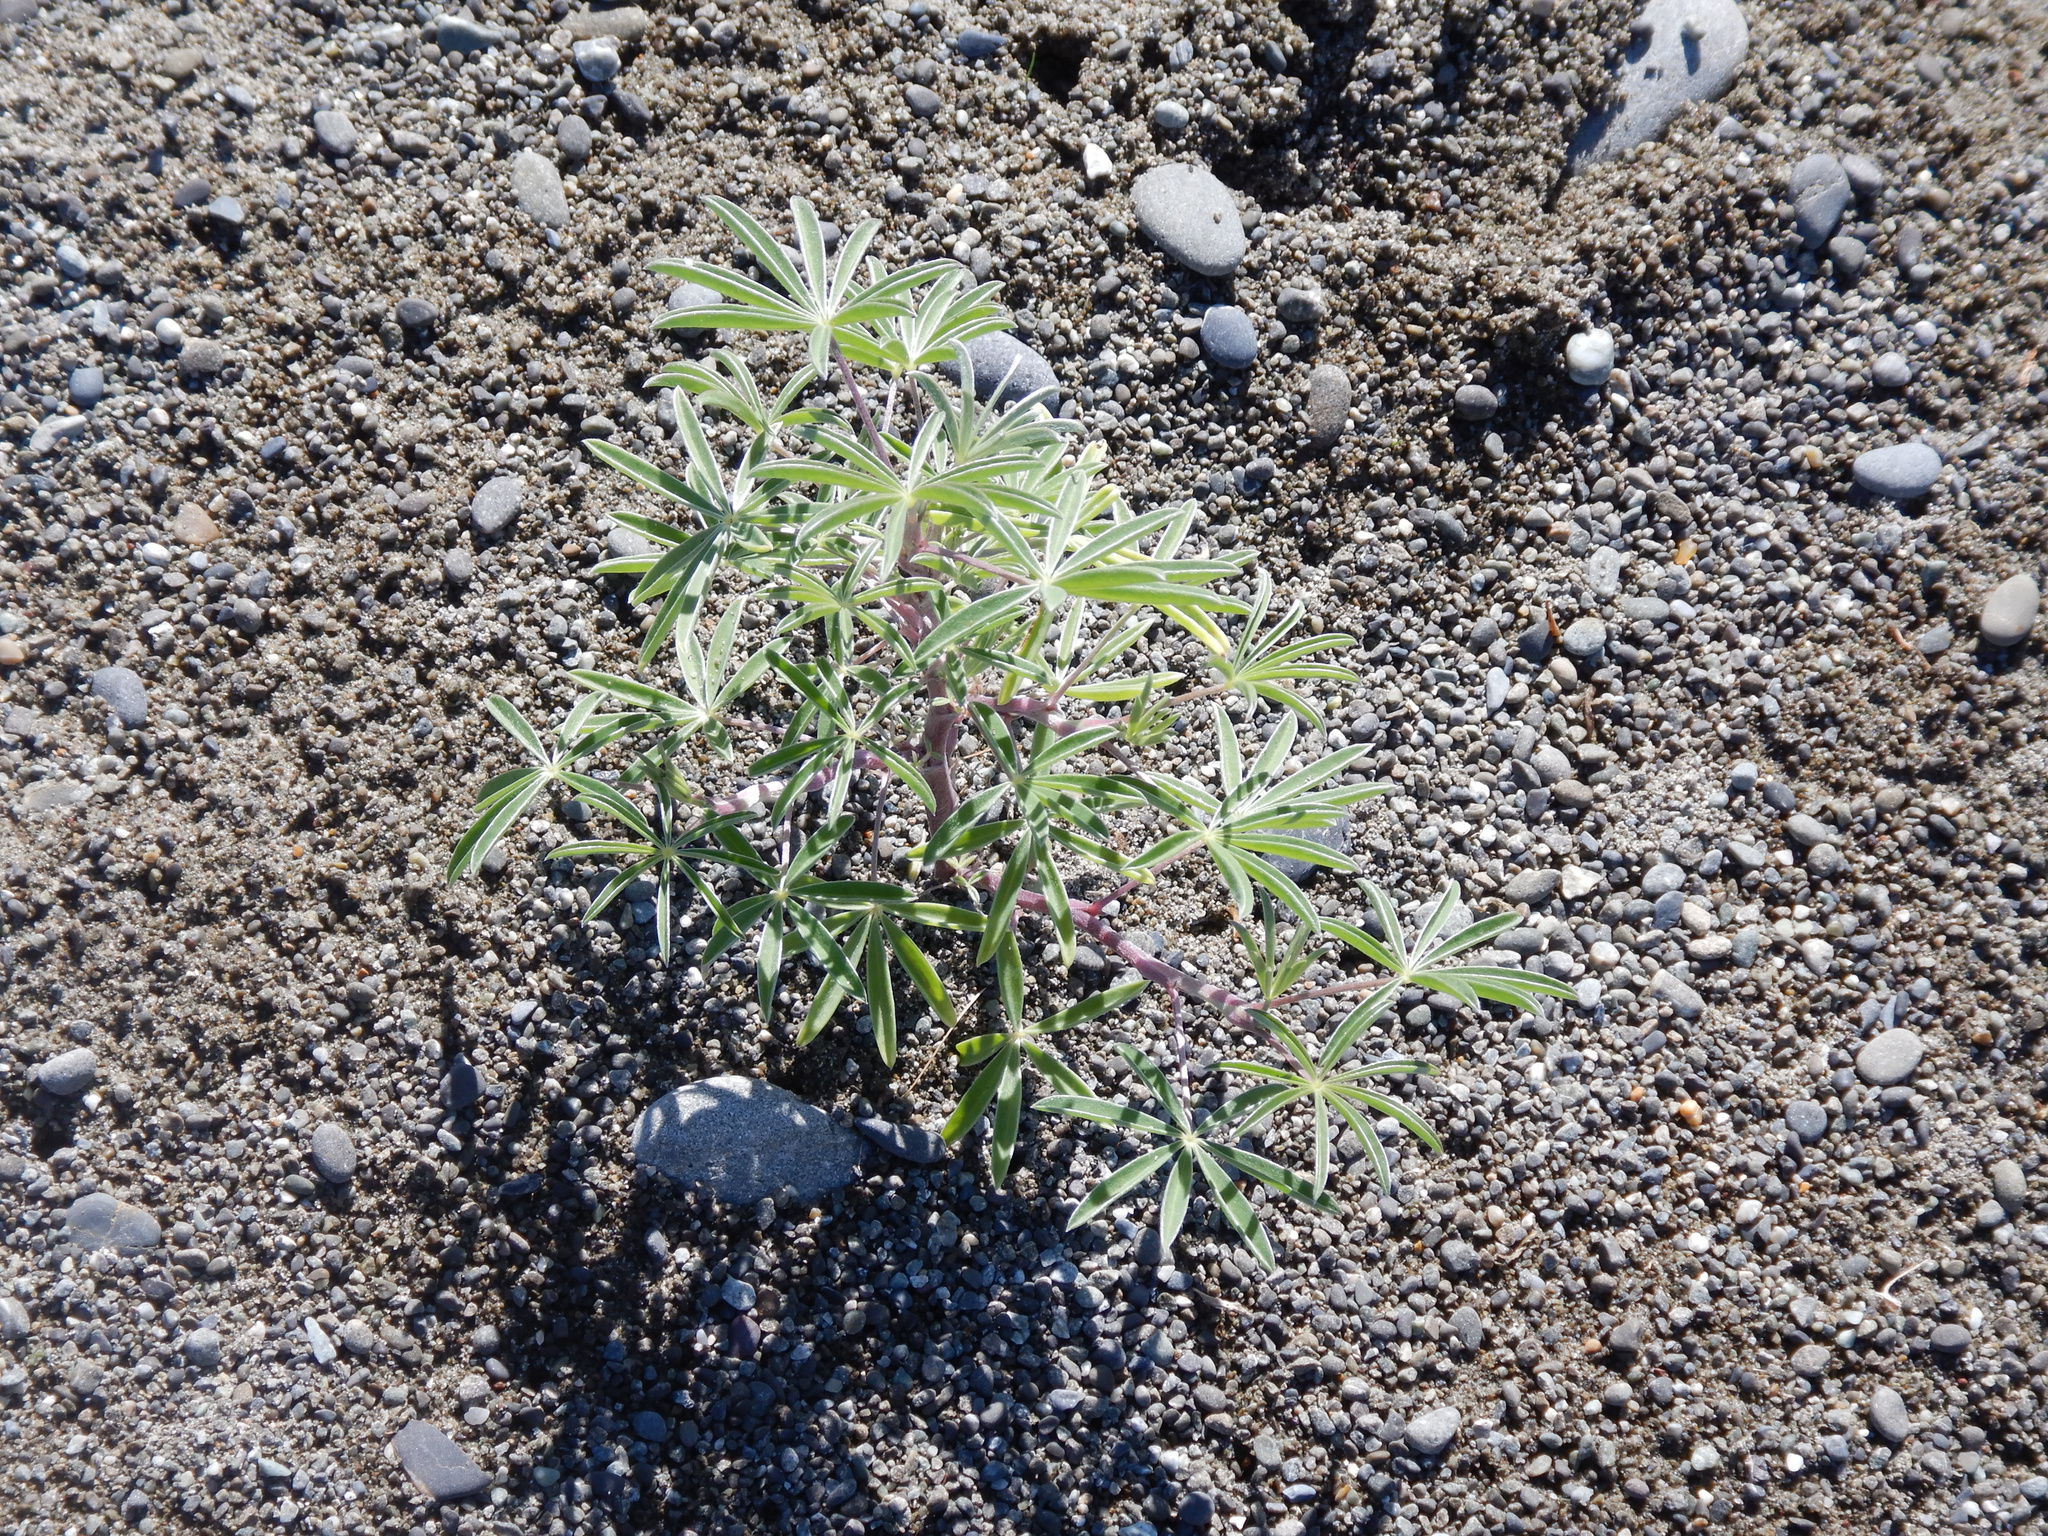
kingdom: Plantae
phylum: Tracheophyta
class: Magnoliopsida
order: Fabales
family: Fabaceae
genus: Lupinus
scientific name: Lupinus arboreus
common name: Yellow bush lupine
